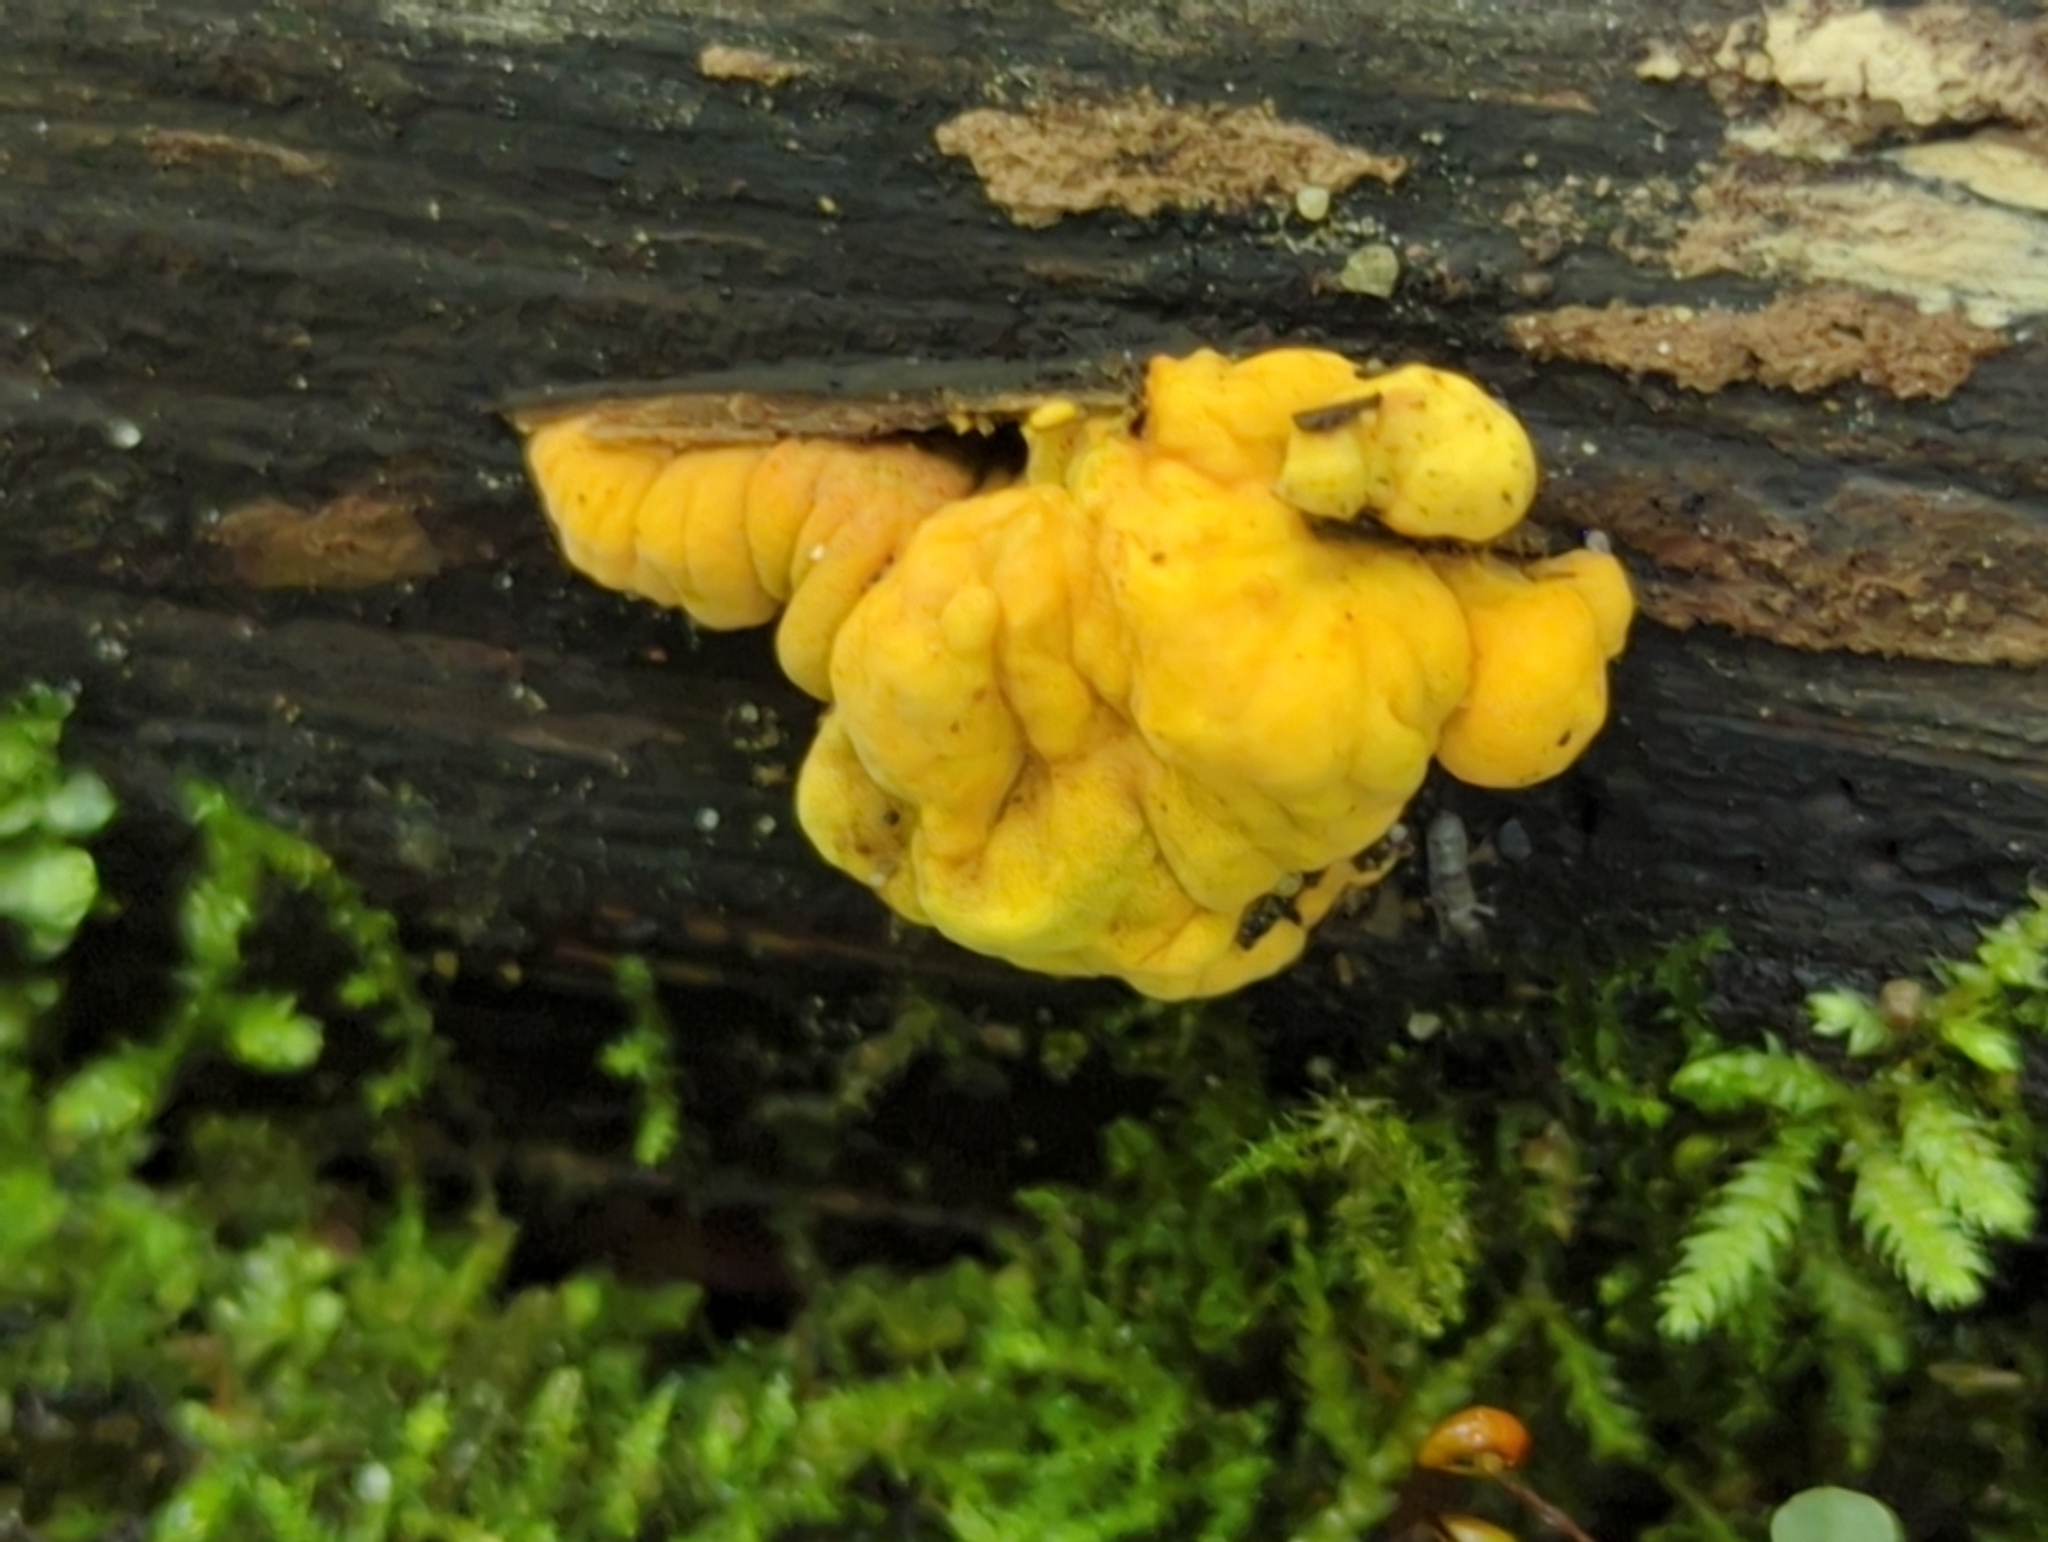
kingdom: Fungi
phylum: Ascomycota
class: Sordariomycetes
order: Xylariales
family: Hypoxylaceae
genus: Thuemenella
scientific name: Thuemenella cubispora
